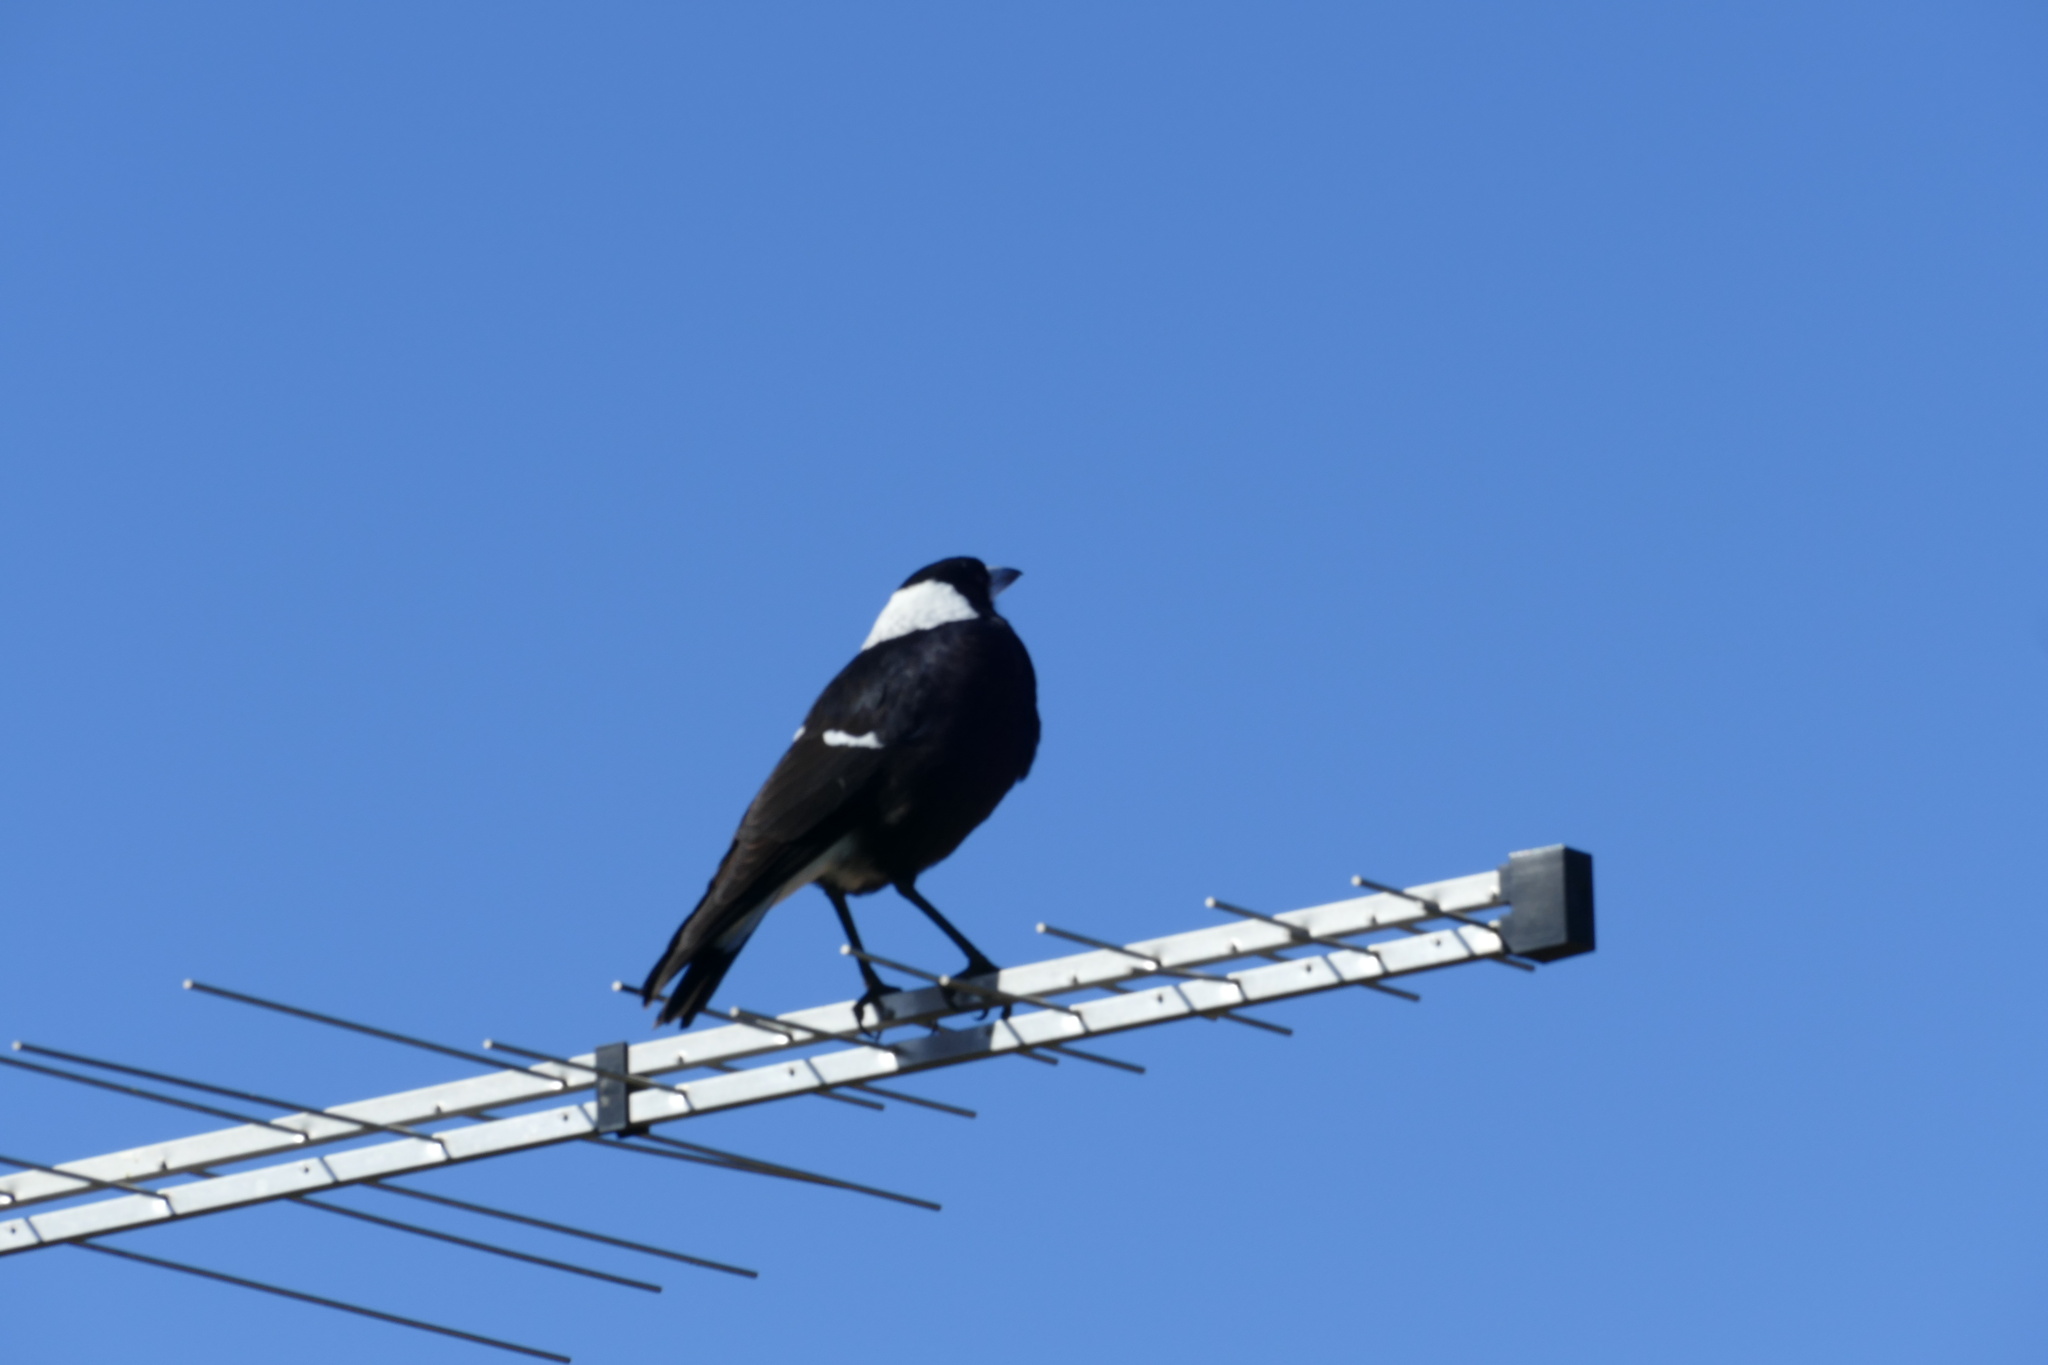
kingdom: Animalia
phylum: Chordata
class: Aves
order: Passeriformes
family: Cracticidae
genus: Gymnorhina
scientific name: Gymnorhina tibicen
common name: Australian magpie
